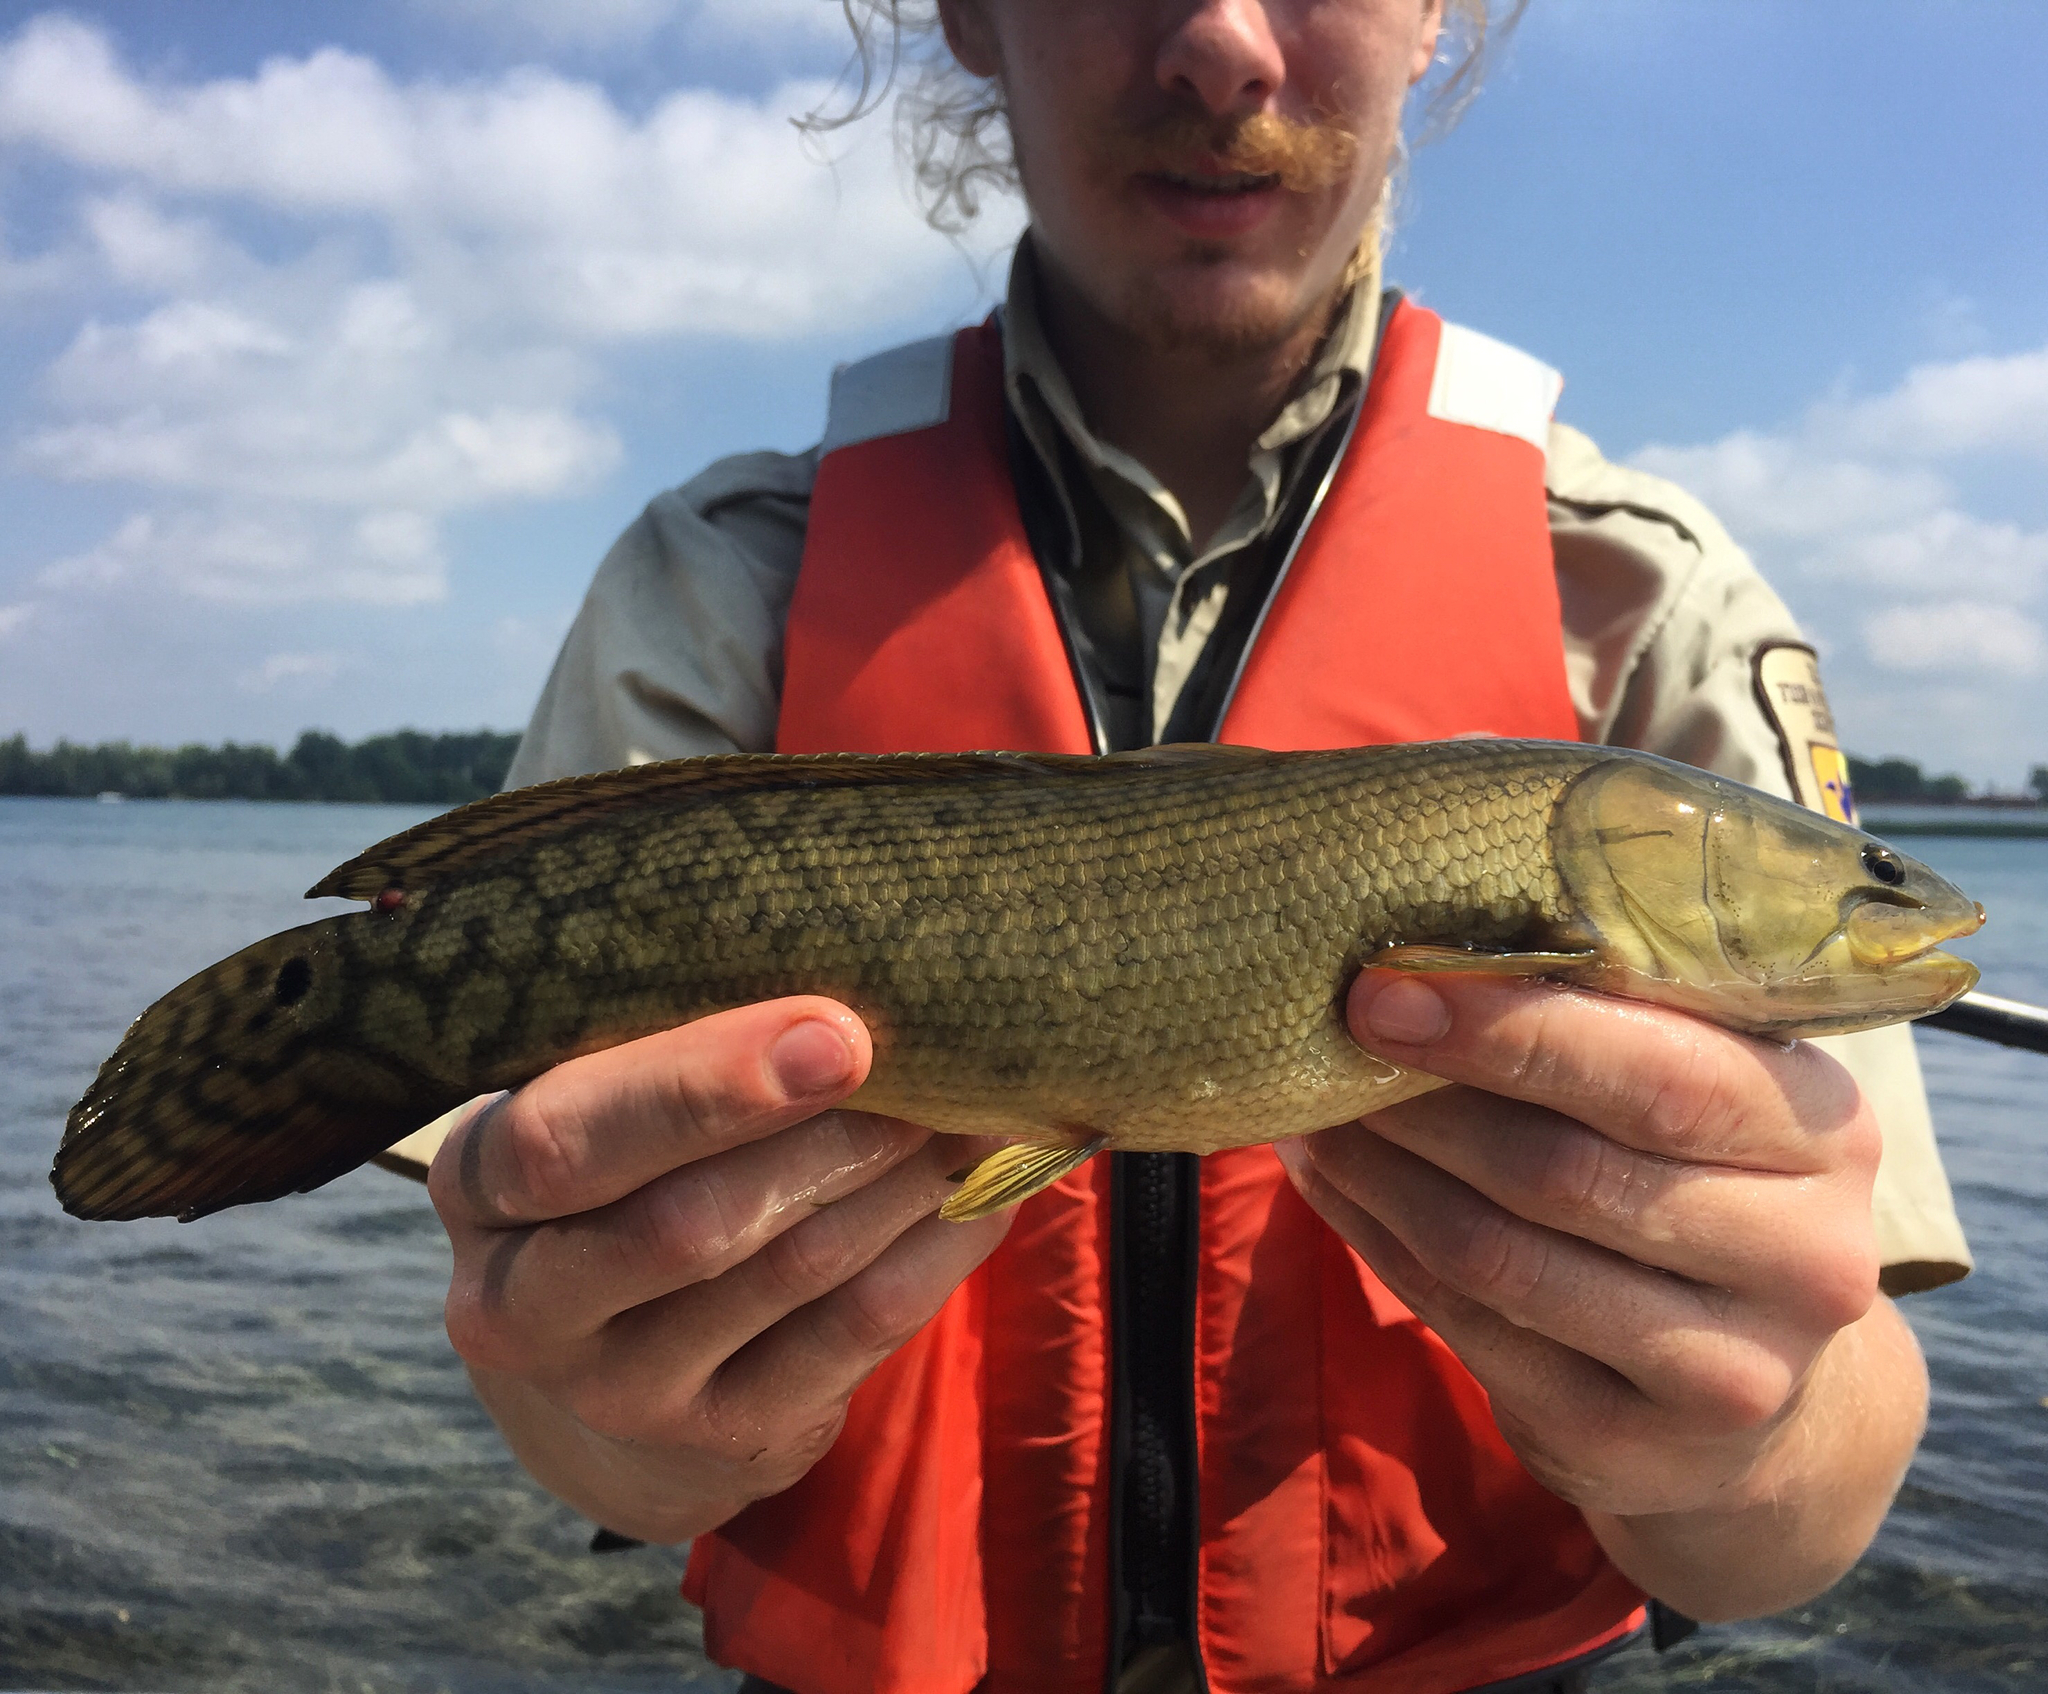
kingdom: Animalia
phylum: Chordata
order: Amiiformes
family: Amiidae
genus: Amia
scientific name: Amia calva
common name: Bowfin
